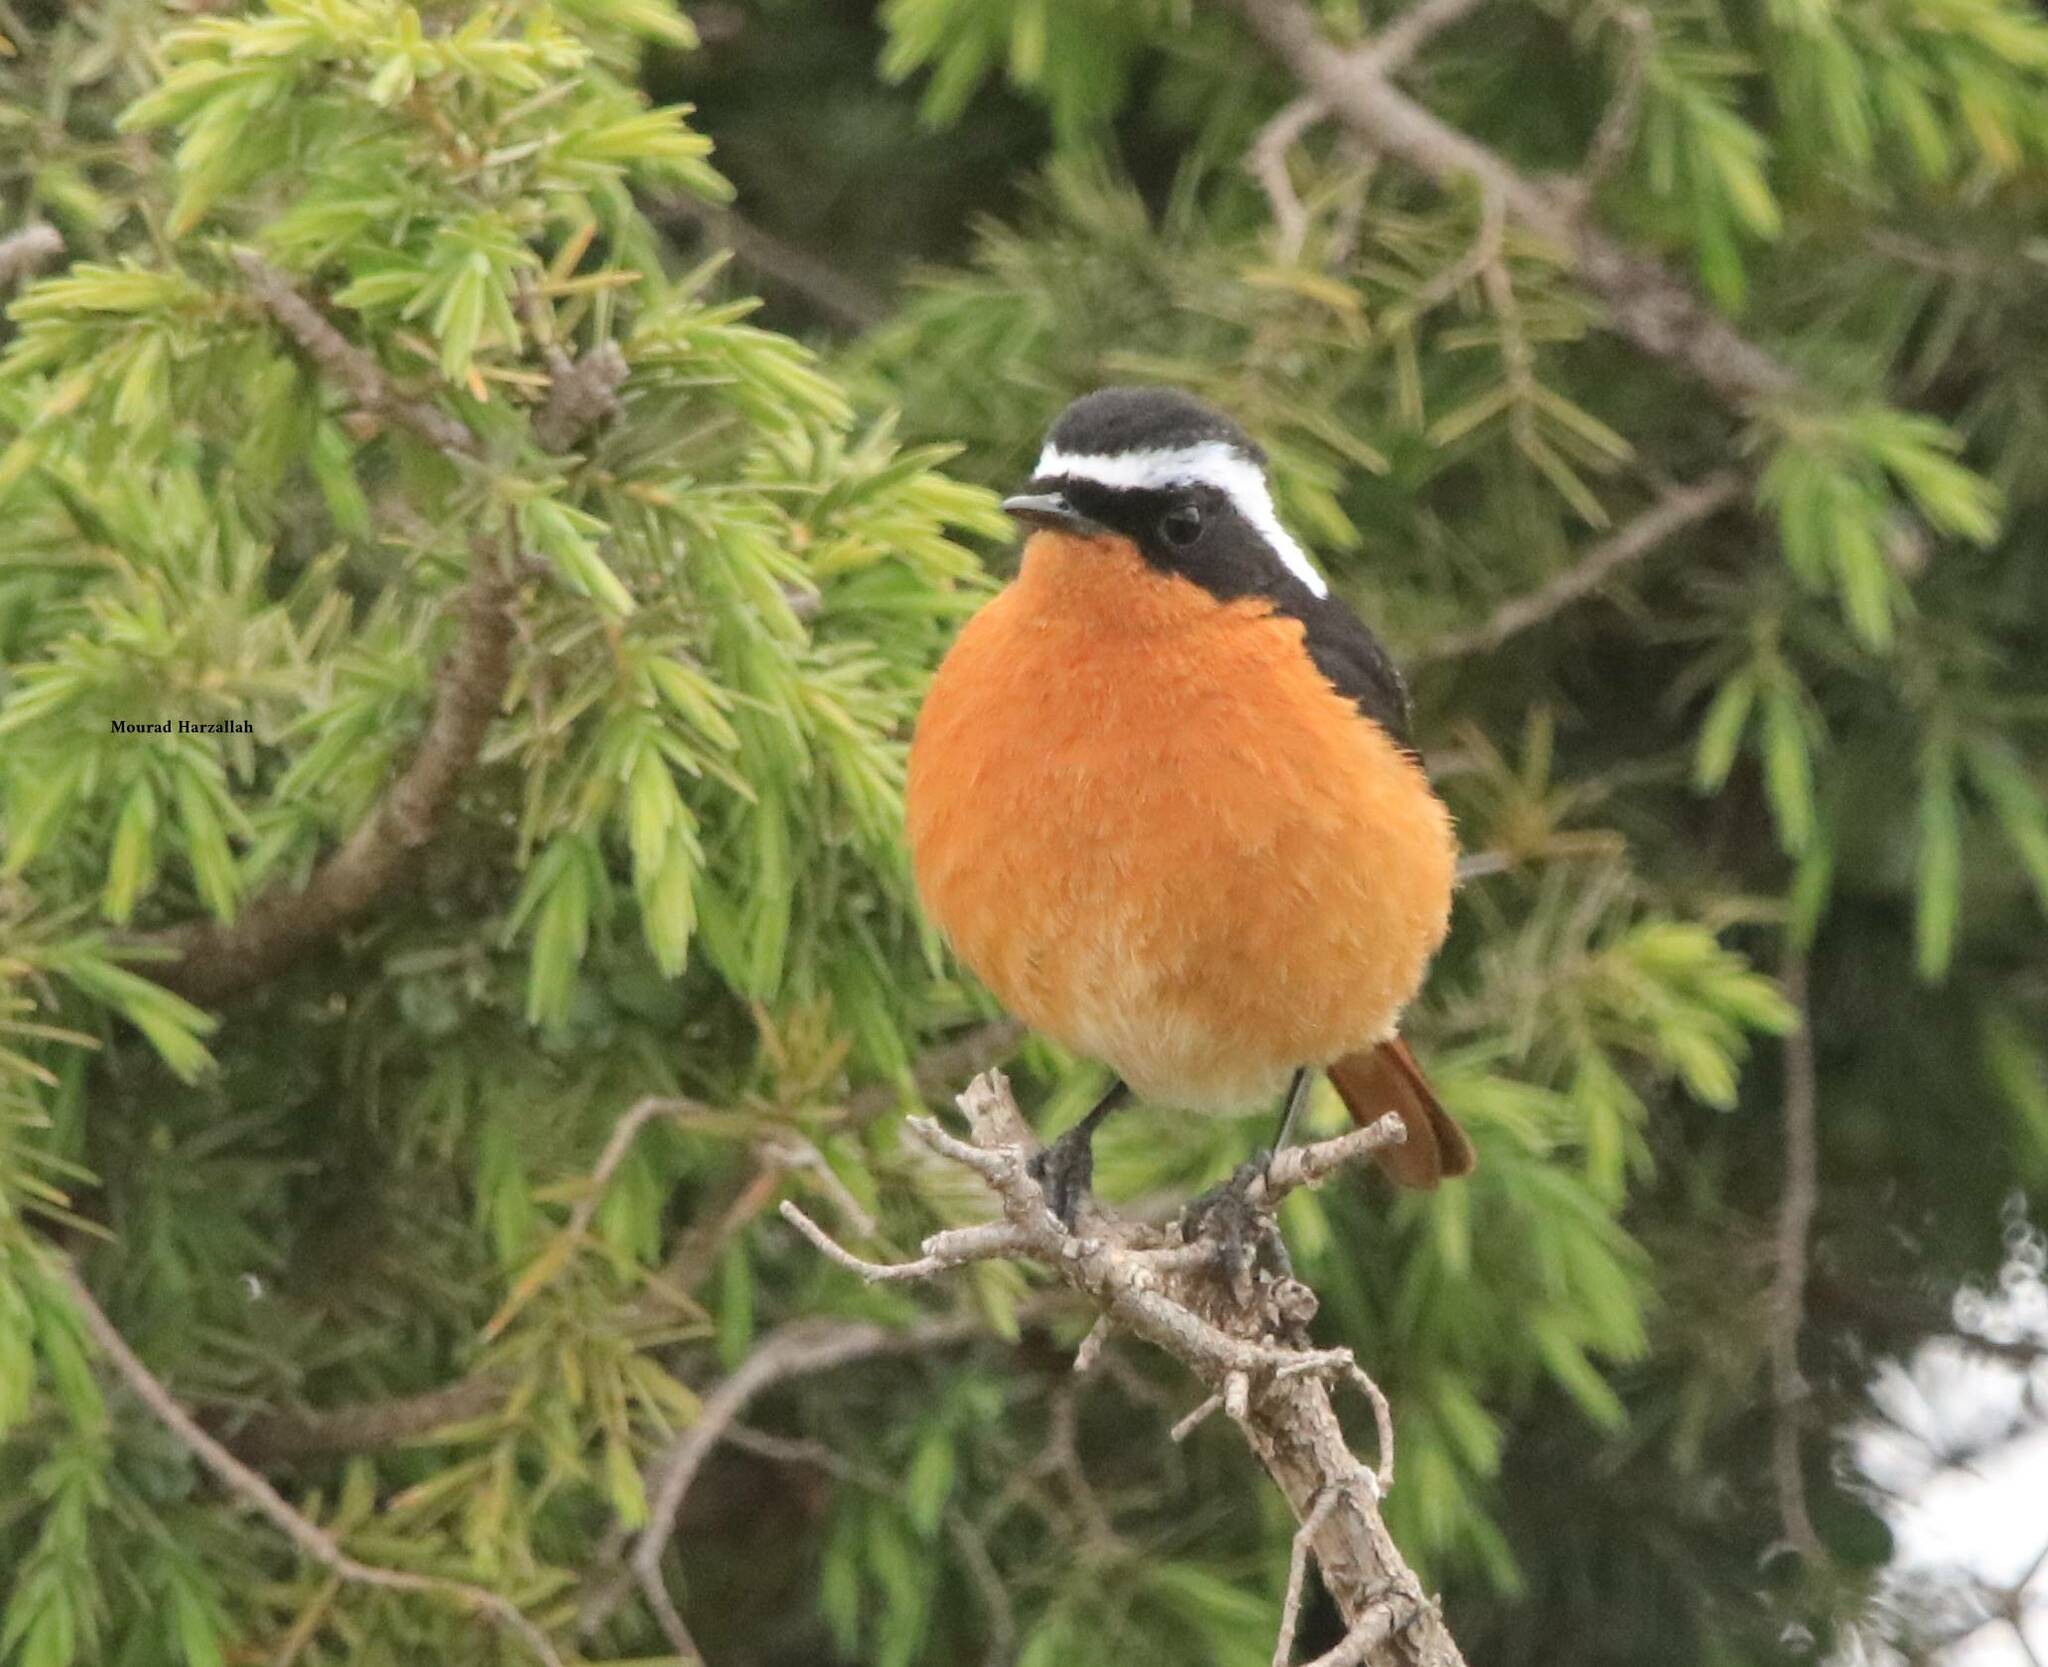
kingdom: Animalia
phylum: Chordata
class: Aves
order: Passeriformes
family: Muscicapidae
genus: Phoenicurus
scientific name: Phoenicurus moussieri
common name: Moussier's redstart
